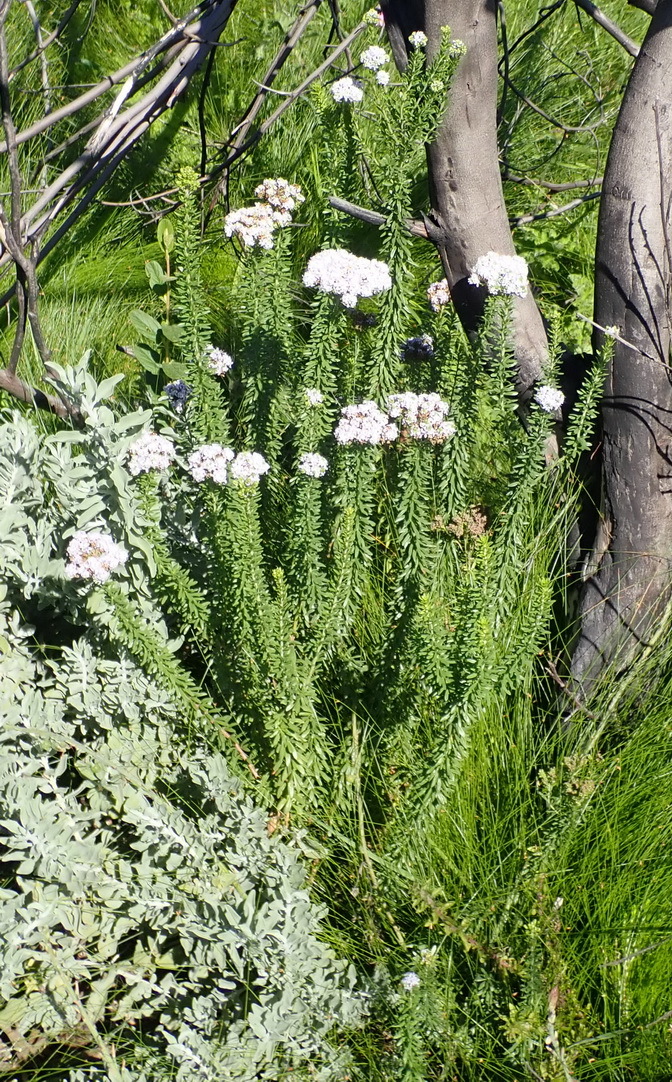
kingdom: Plantae
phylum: Tracheophyta
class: Magnoliopsida
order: Lamiales
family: Scrophulariaceae
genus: Selago
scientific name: Selago cinerea
